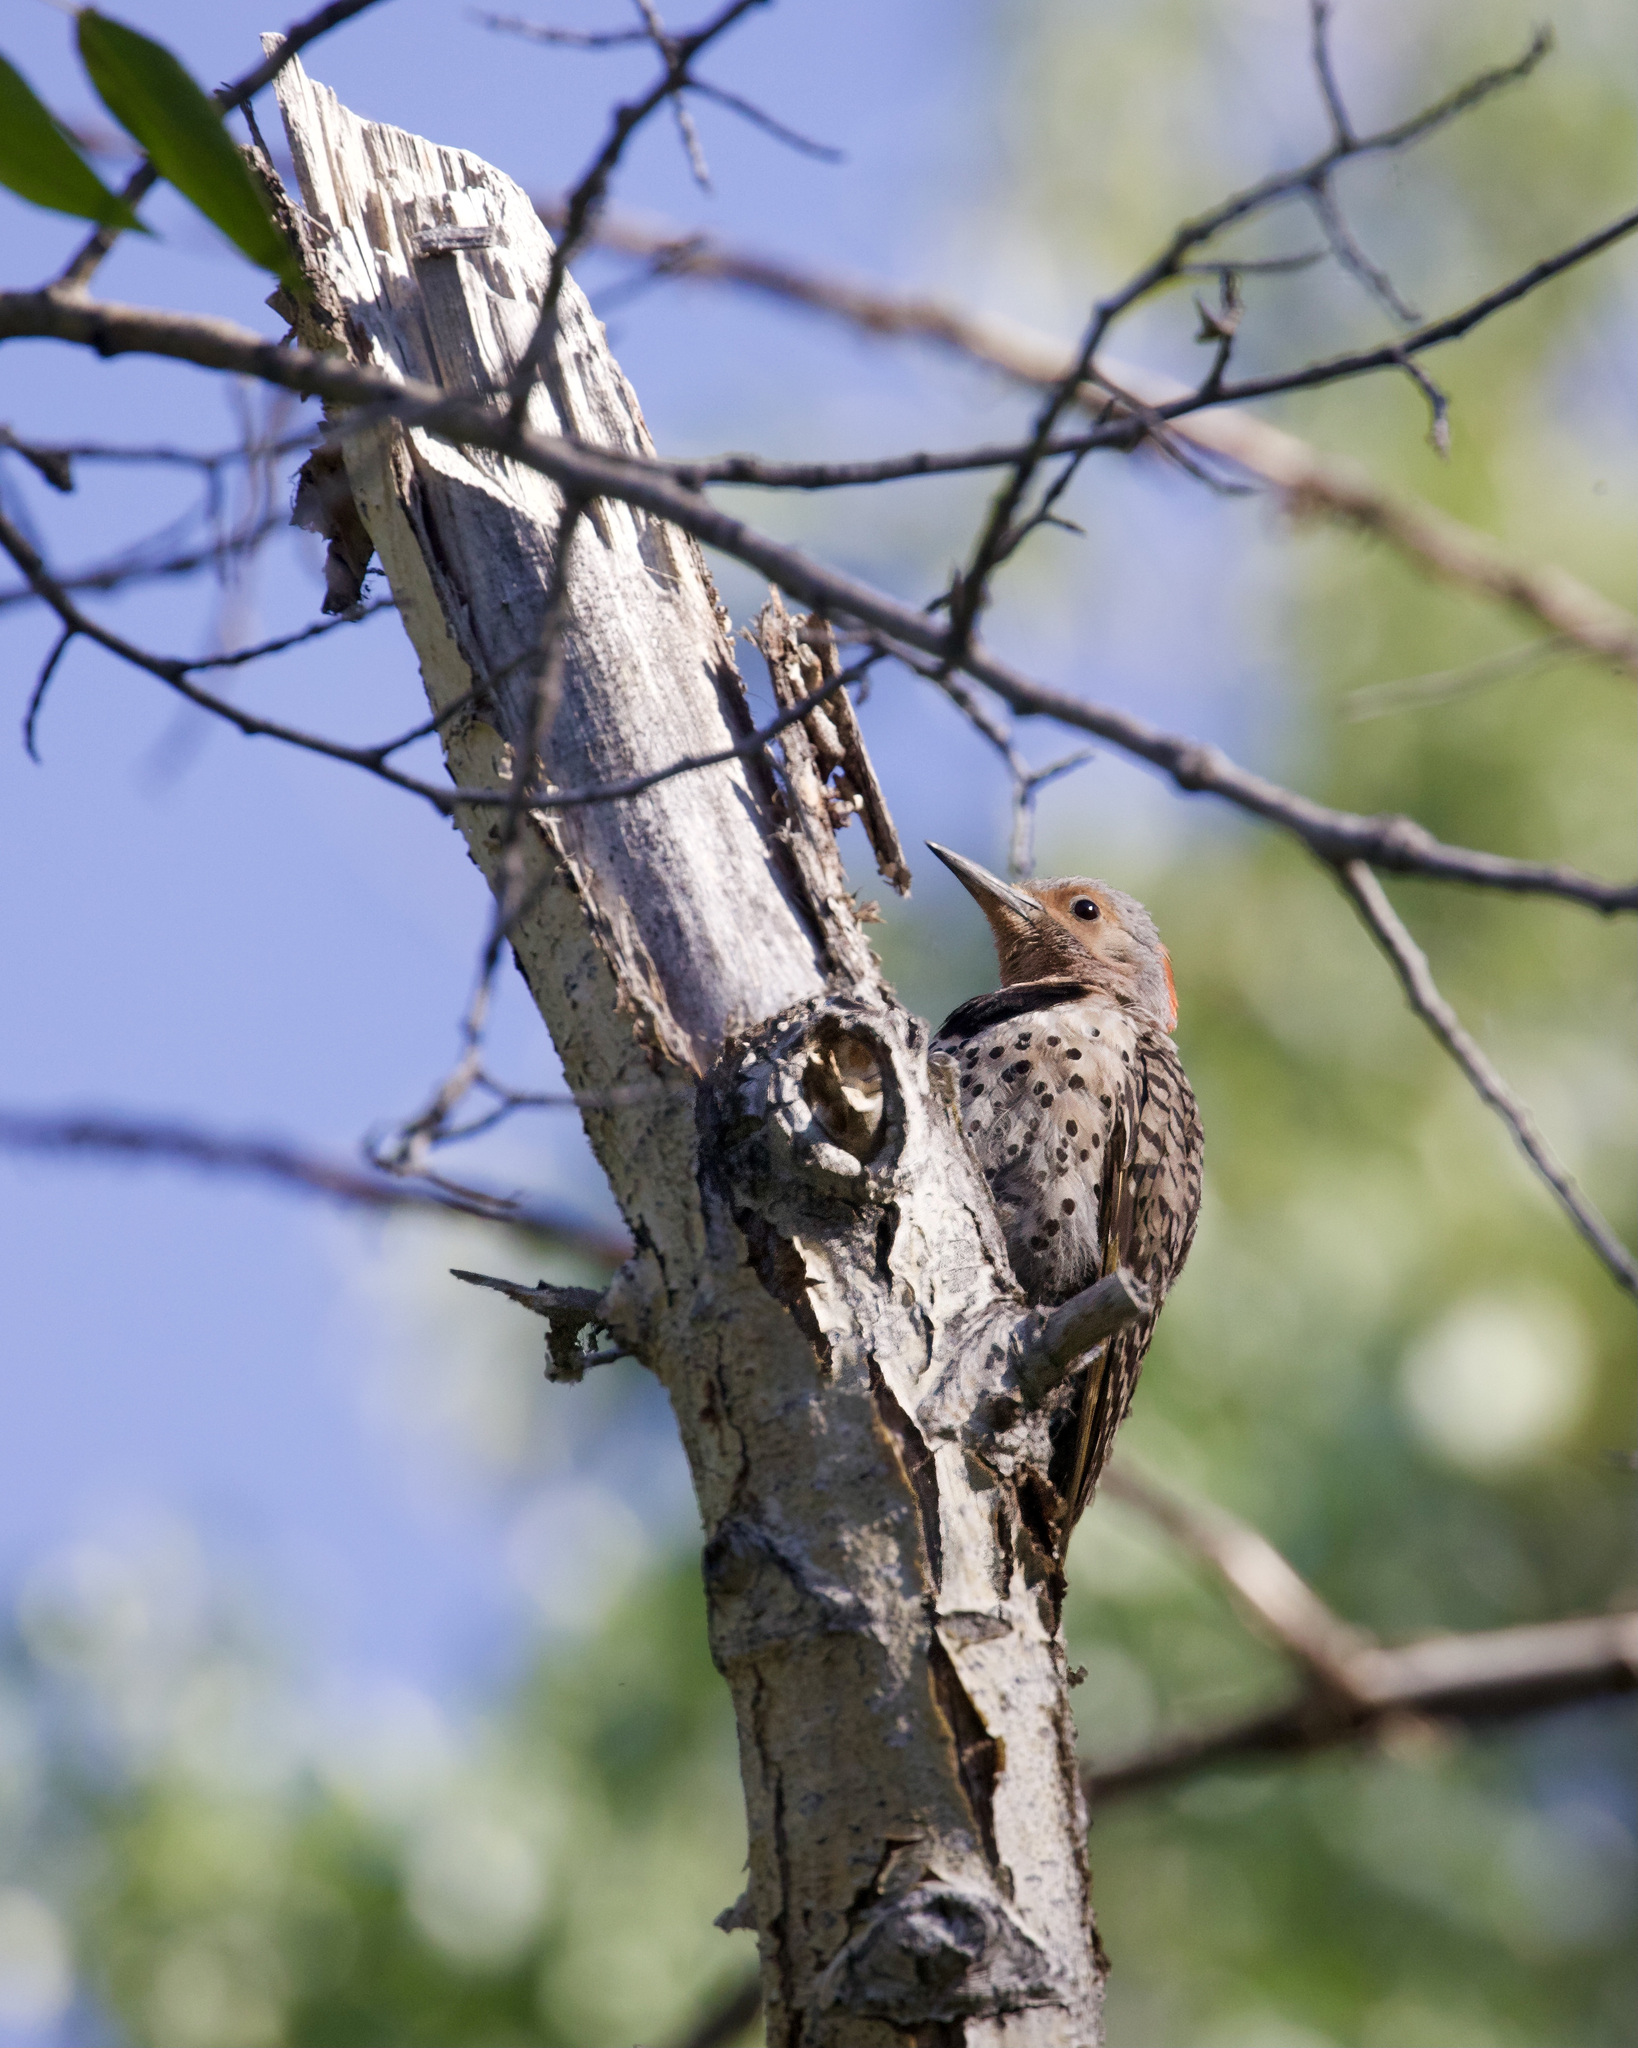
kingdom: Animalia
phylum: Chordata
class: Aves
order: Piciformes
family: Picidae
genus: Colaptes
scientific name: Colaptes auratus
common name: Northern flicker
